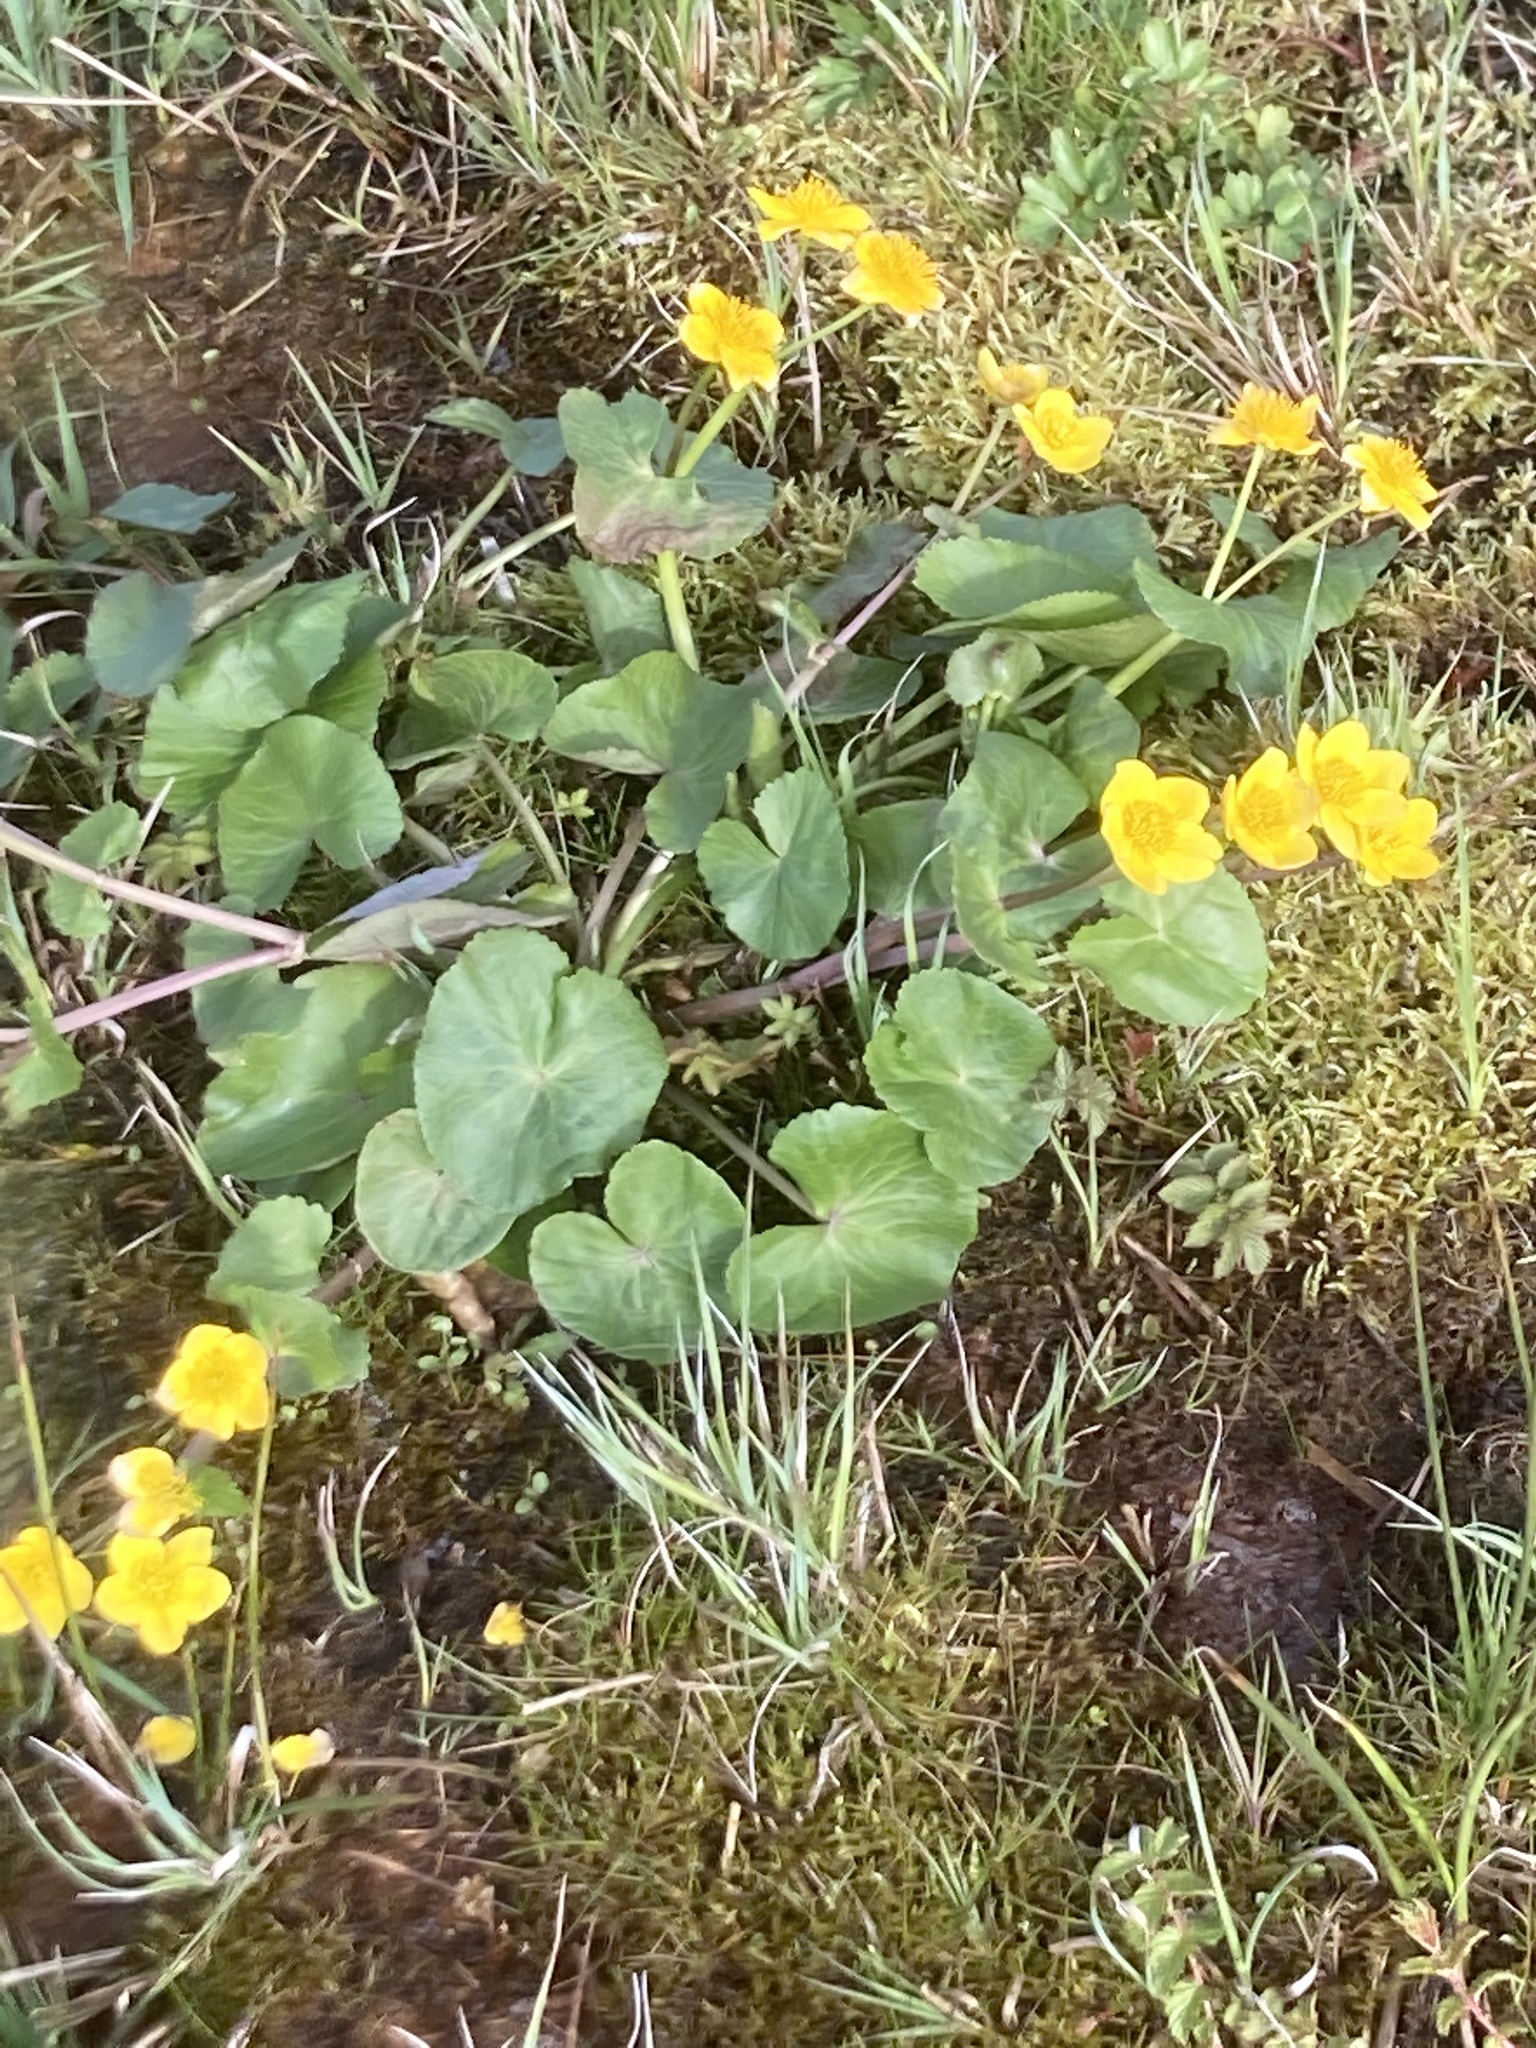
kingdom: Plantae
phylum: Tracheophyta
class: Magnoliopsida
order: Ranunculales
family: Ranunculaceae
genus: Caltha
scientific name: Caltha palustris
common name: Marsh marigold
